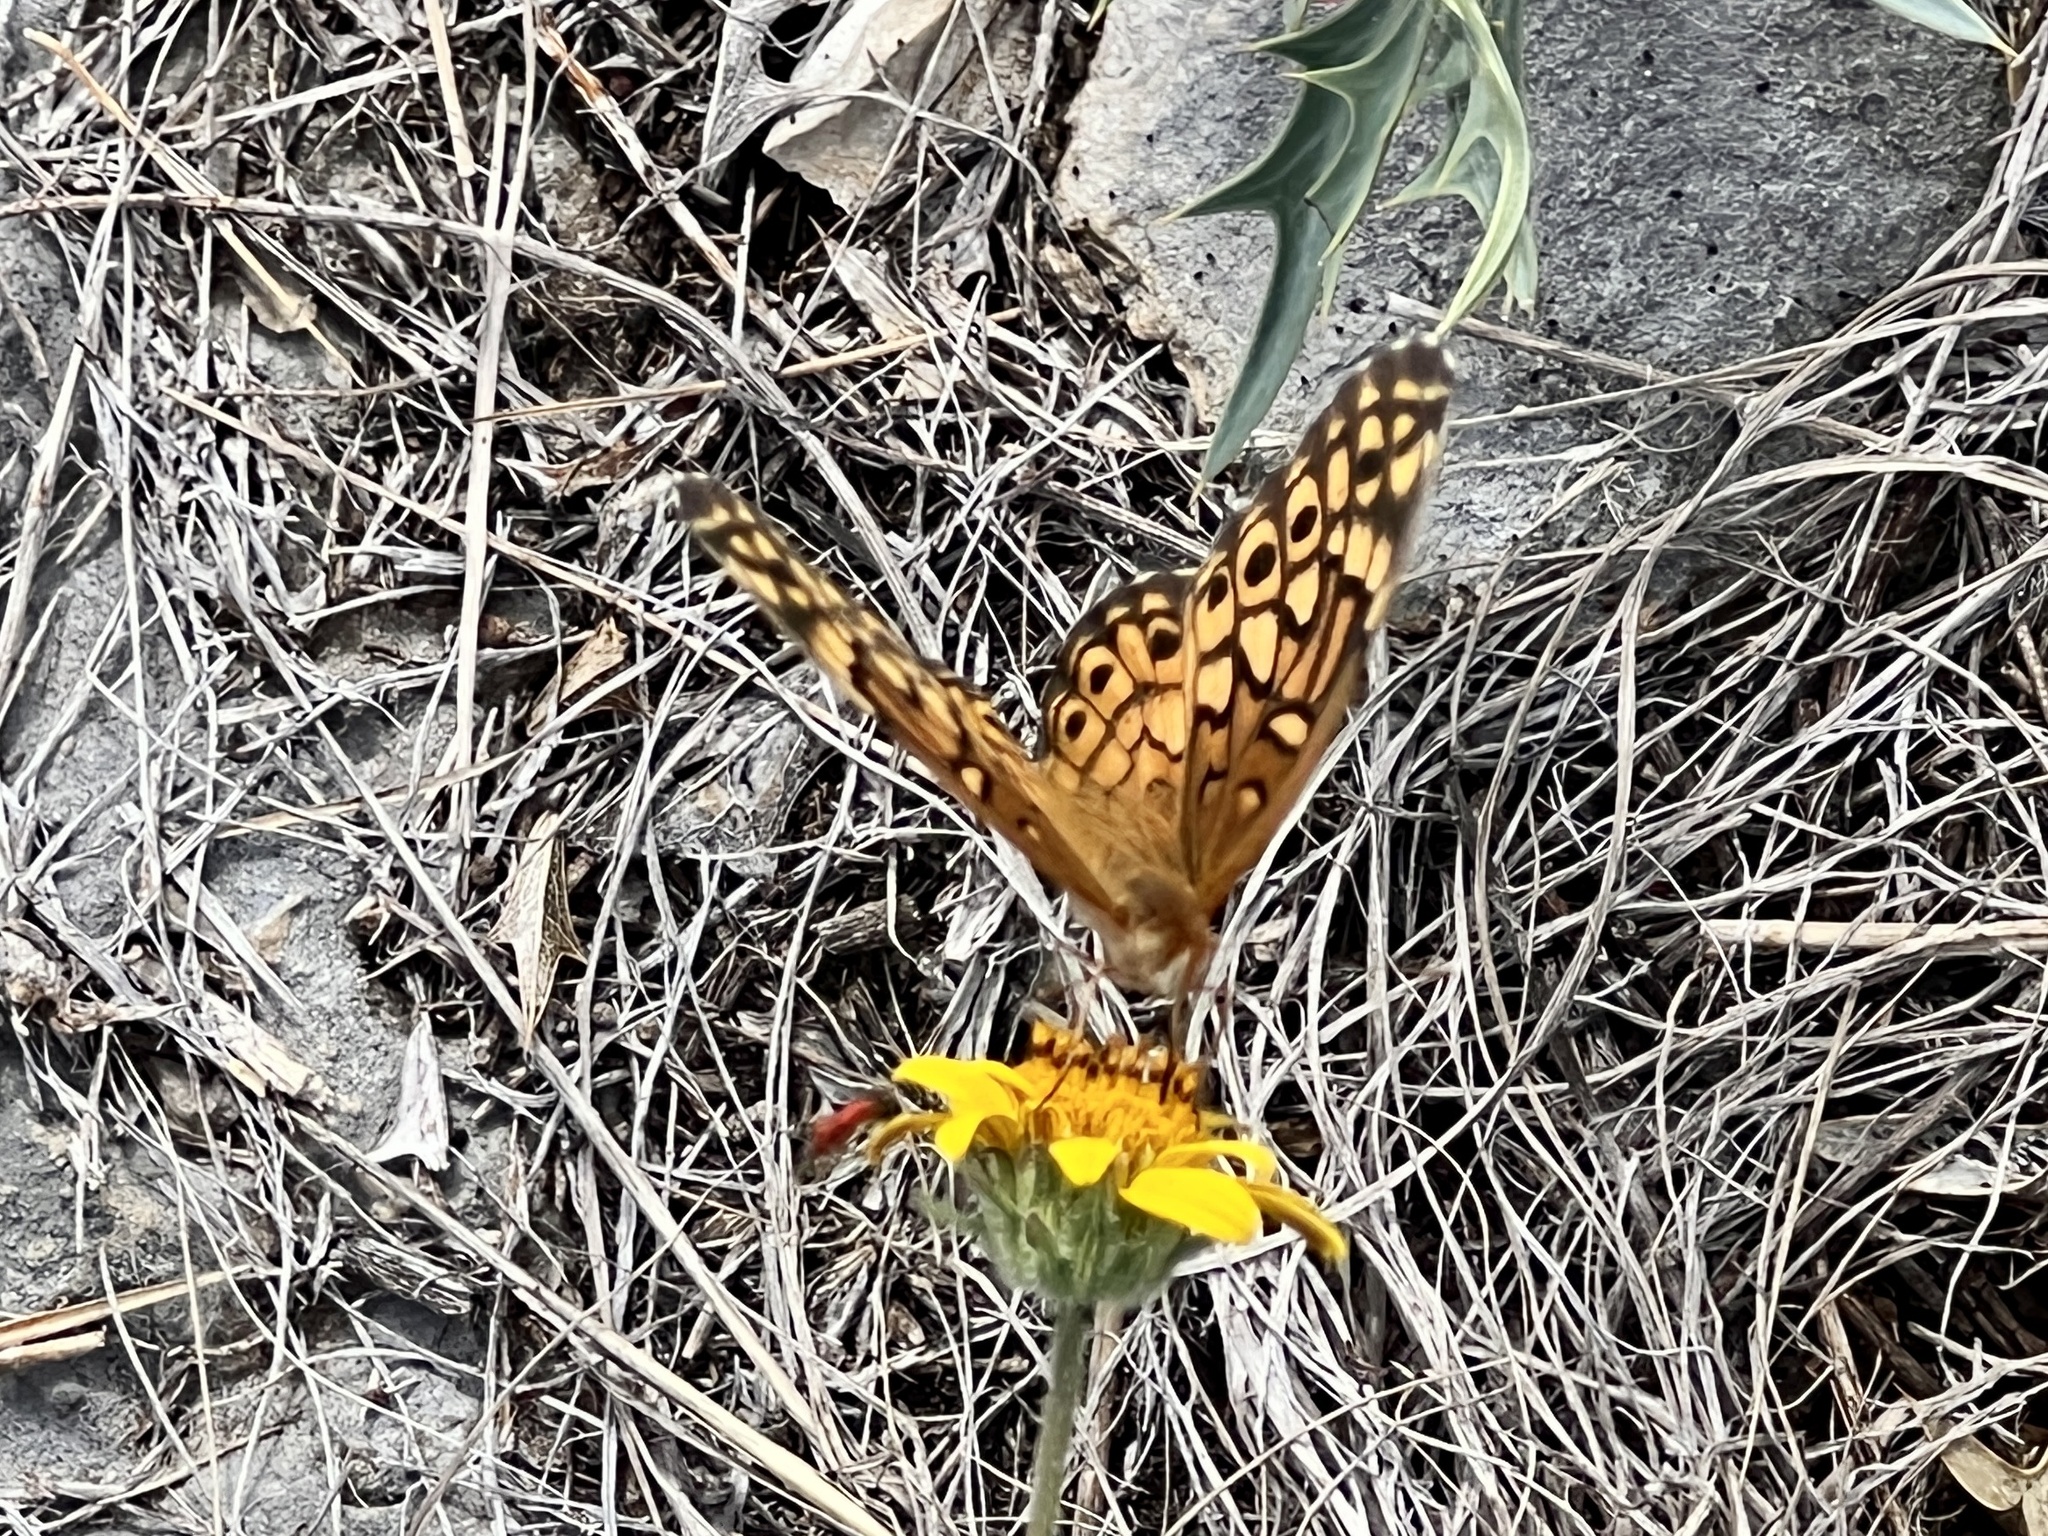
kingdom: Animalia
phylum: Arthropoda
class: Insecta
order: Lepidoptera
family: Nymphalidae
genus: Euptoieta
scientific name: Euptoieta claudia
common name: Variegated fritillary
